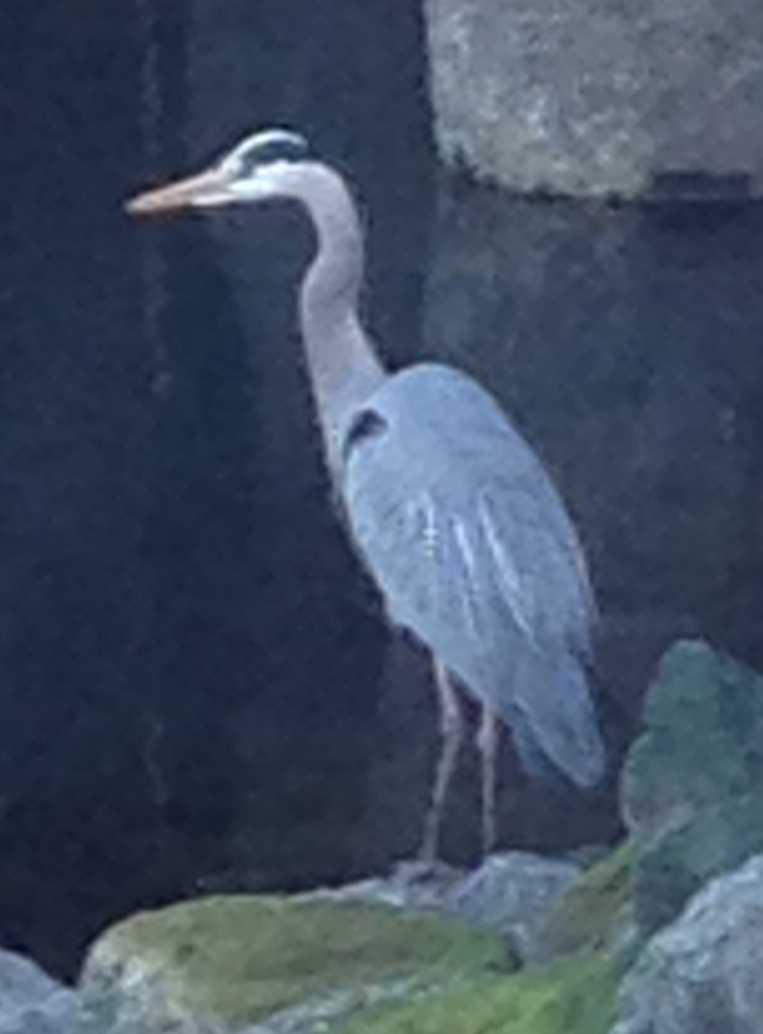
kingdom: Animalia
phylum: Chordata
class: Aves
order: Pelecaniformes
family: Ardeidae
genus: Ardea
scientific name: Ardea herodias
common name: Great blue heron
